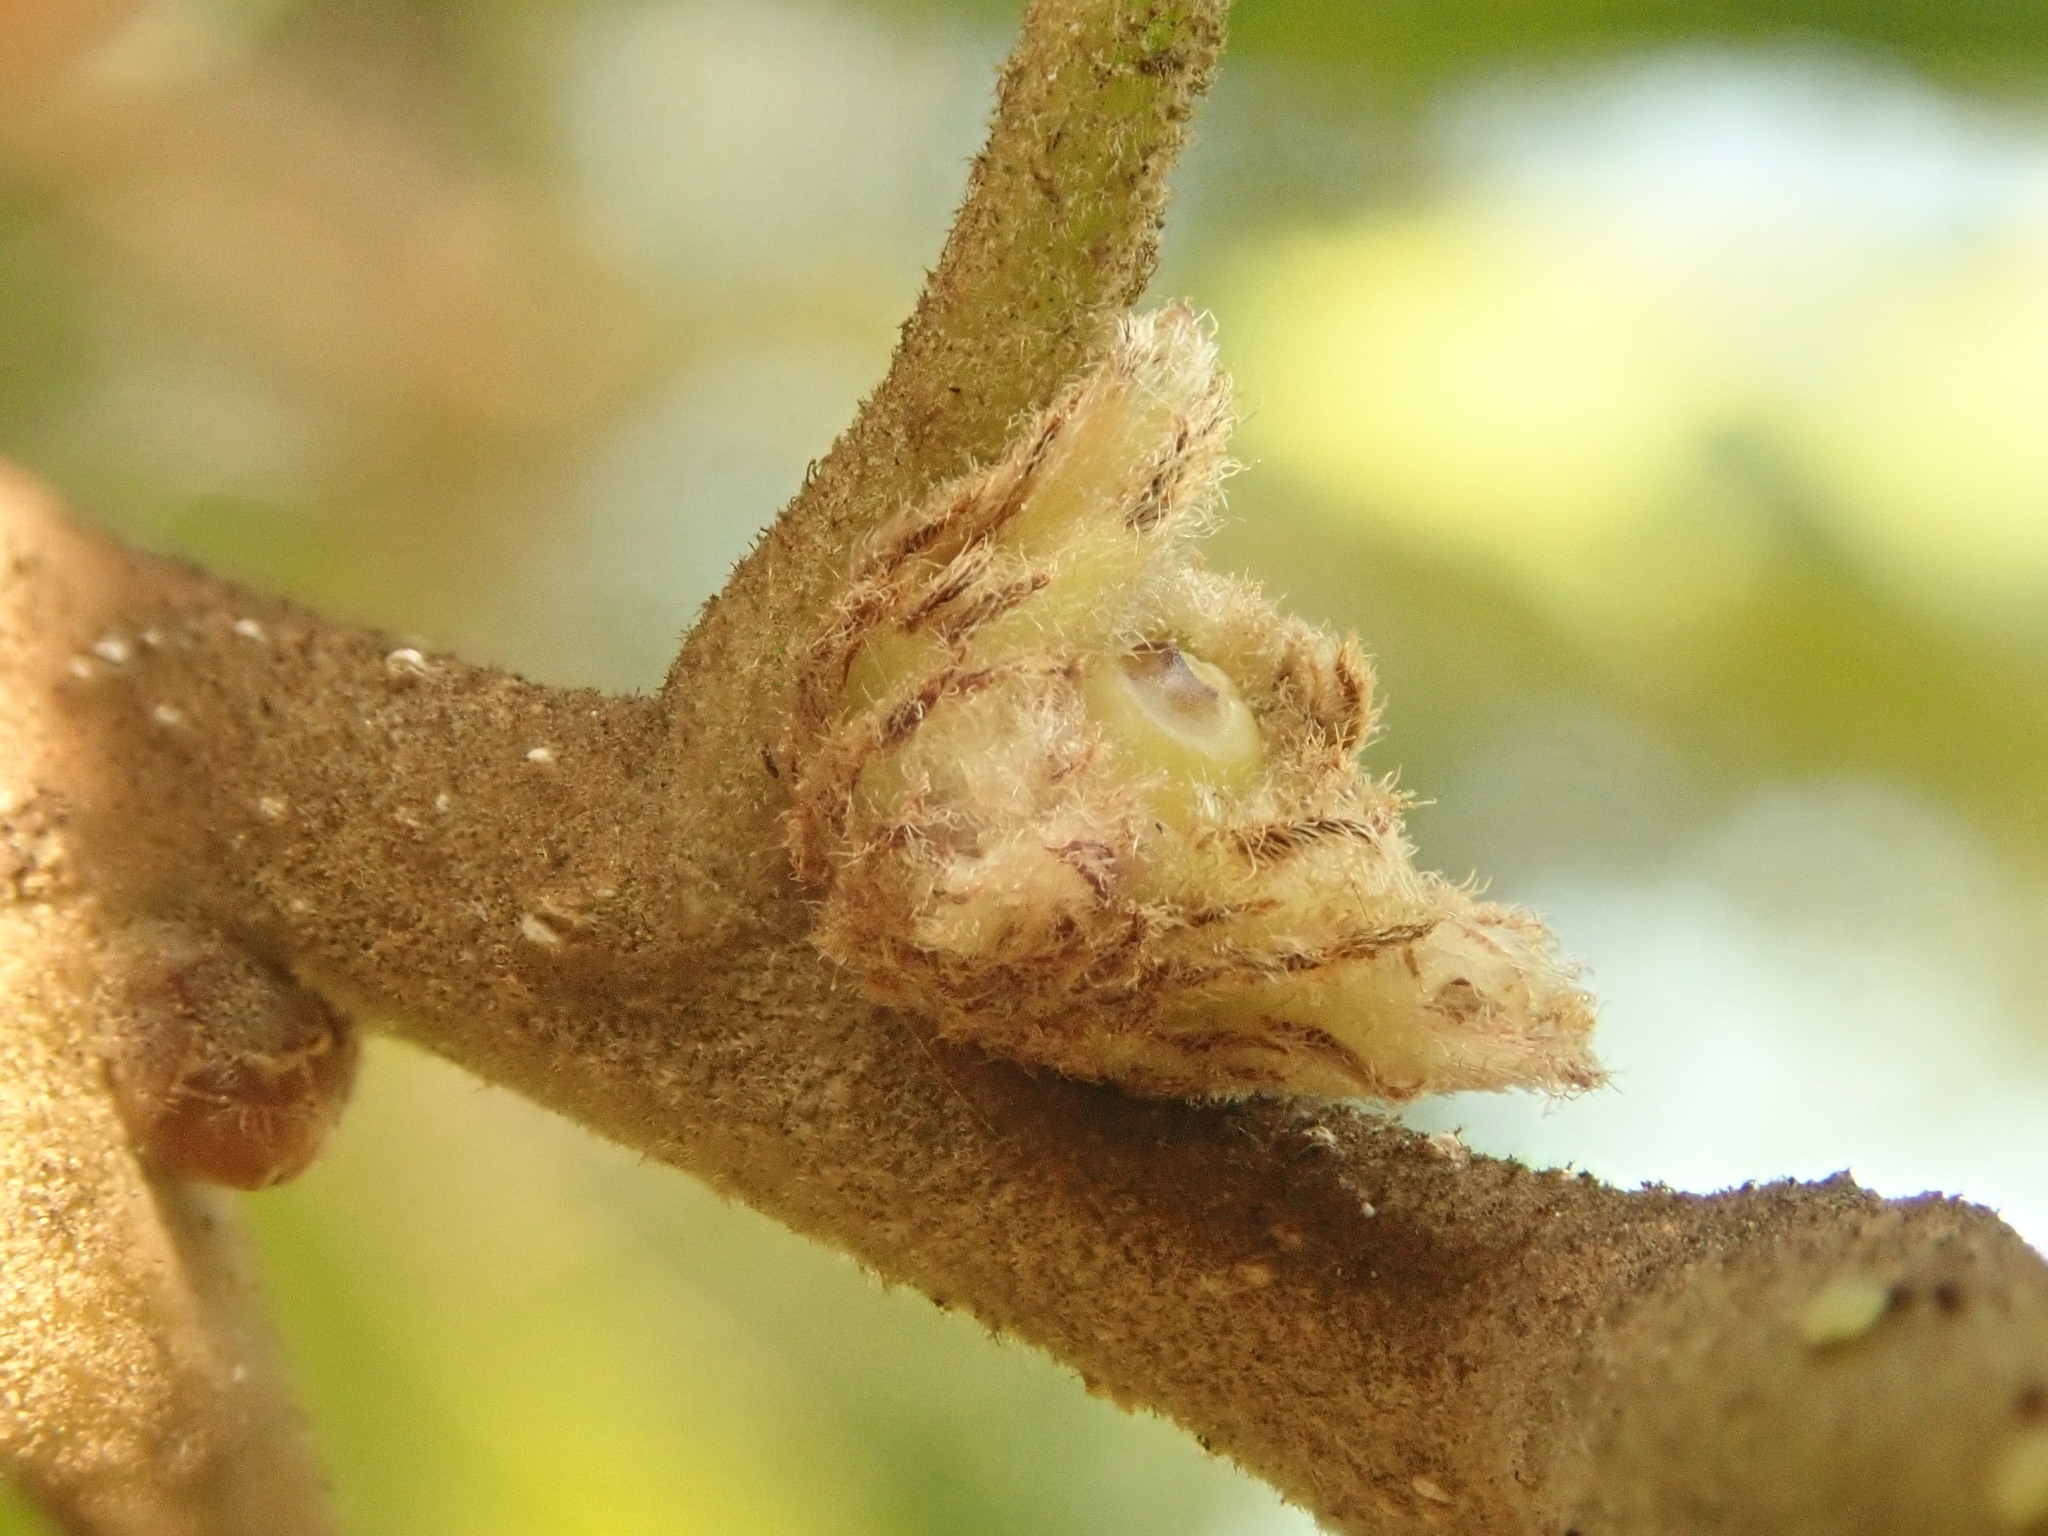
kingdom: Animalia
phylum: Arthropoda
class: Insecta
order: Hymenoptera
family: Cynipidae
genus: Andricus
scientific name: Andricus
